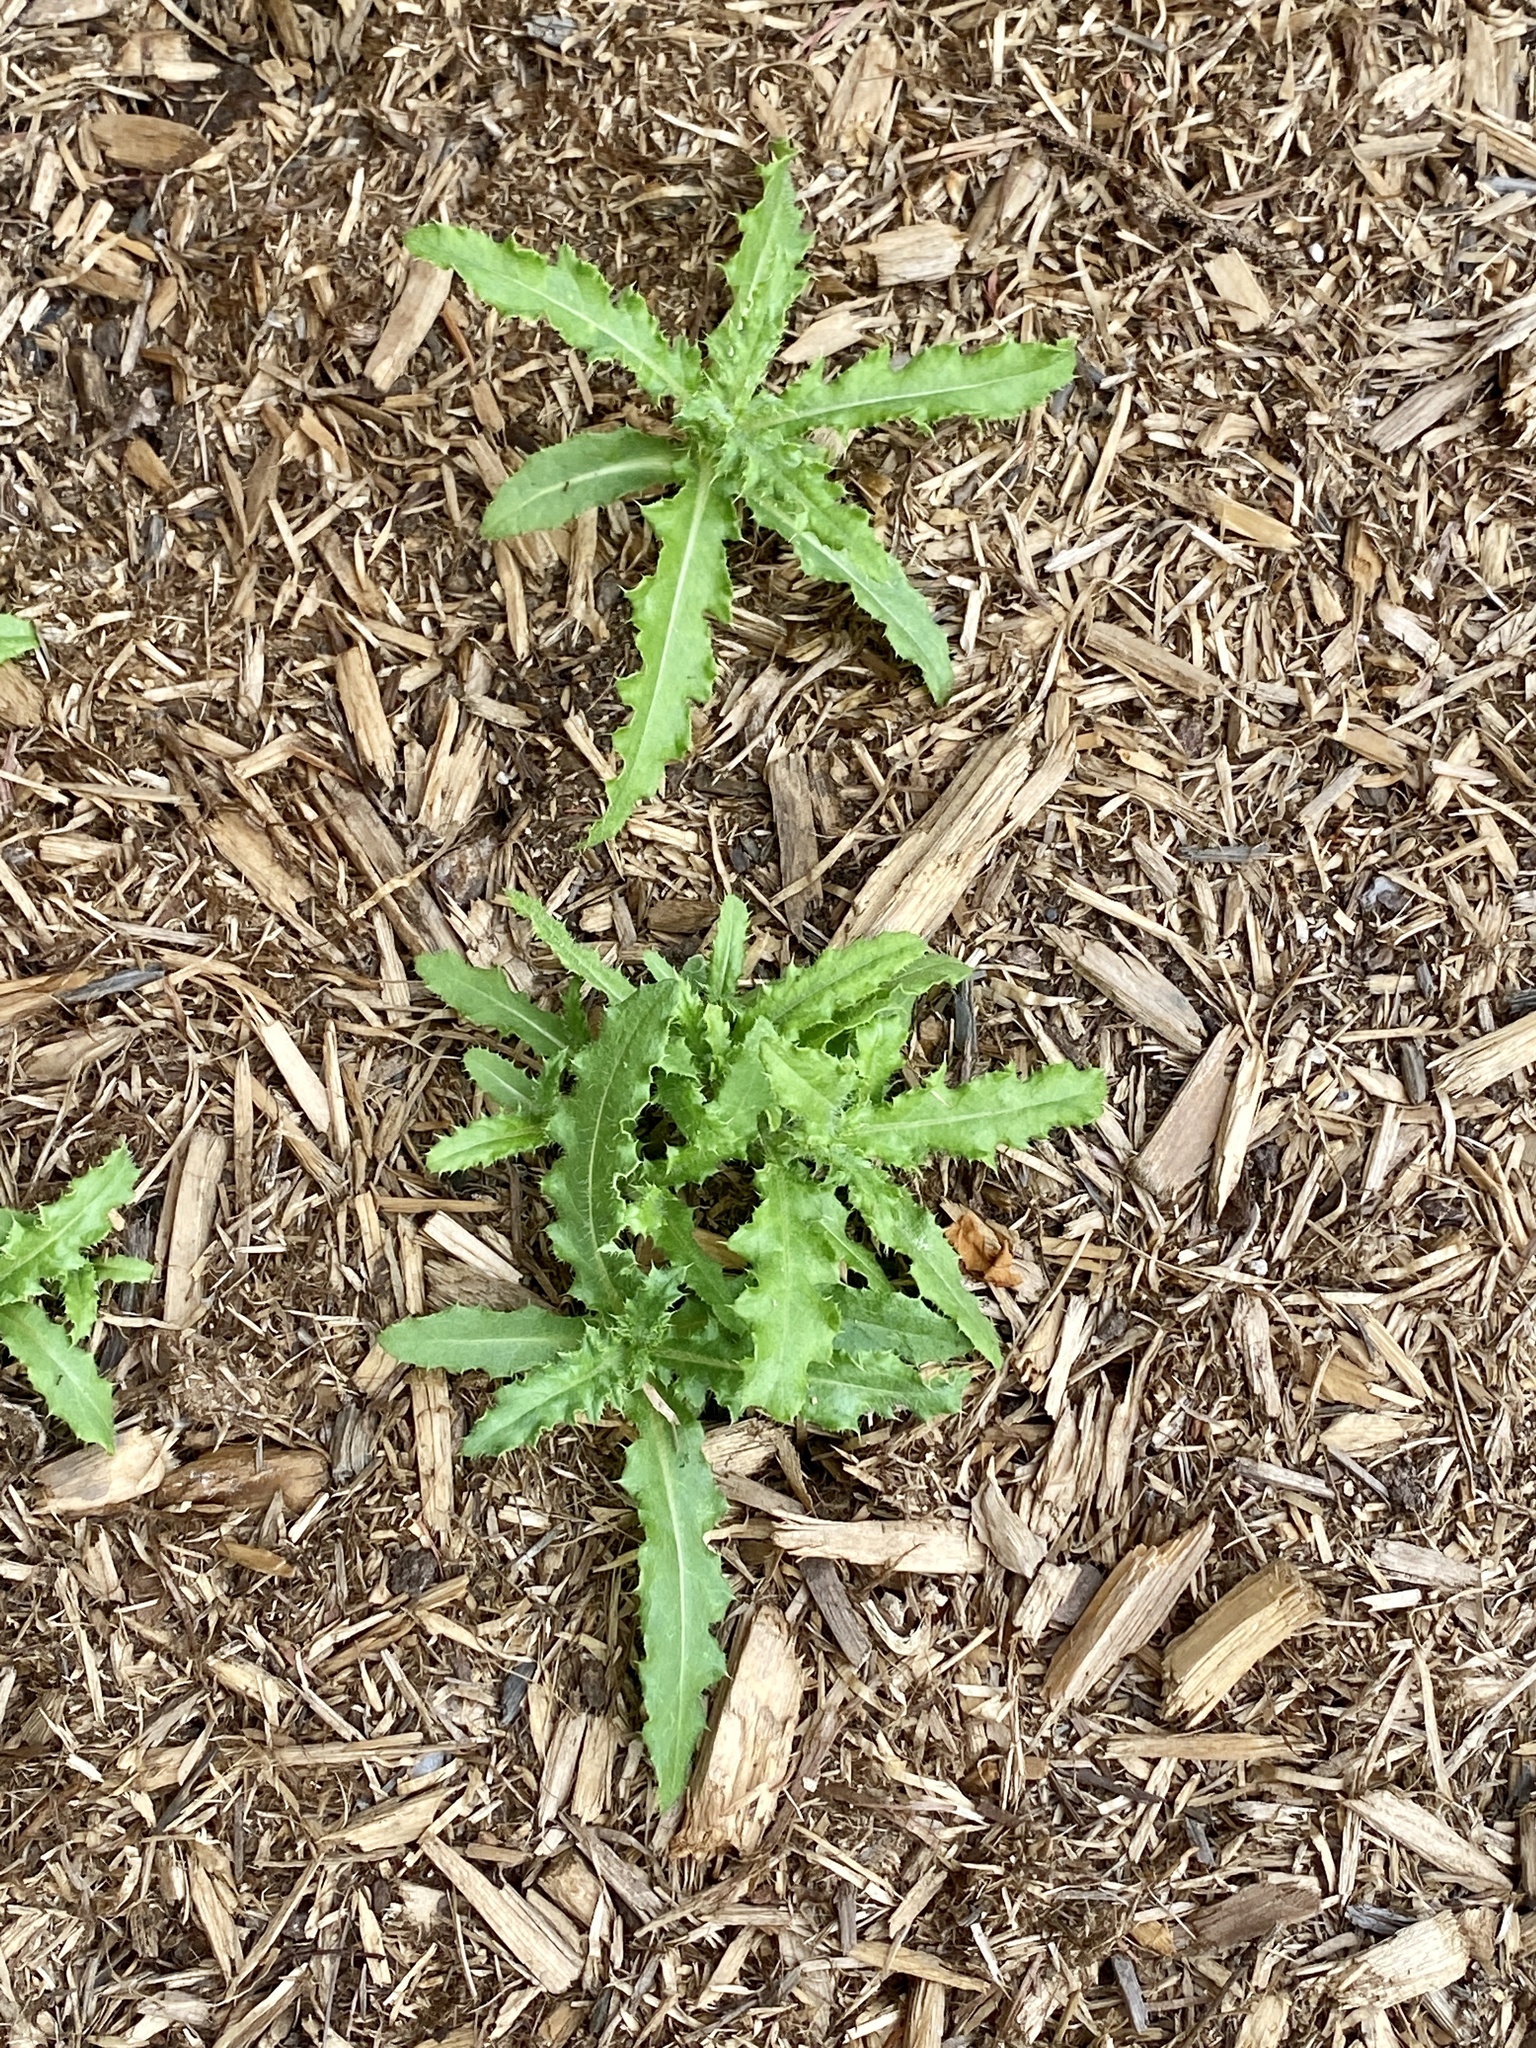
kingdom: Plantae
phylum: Tracheophyta
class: Magnoliopsida
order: Asterales
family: Asteraceae
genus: Cirsium
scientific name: Cirsium arvense
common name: Creeping thistle
